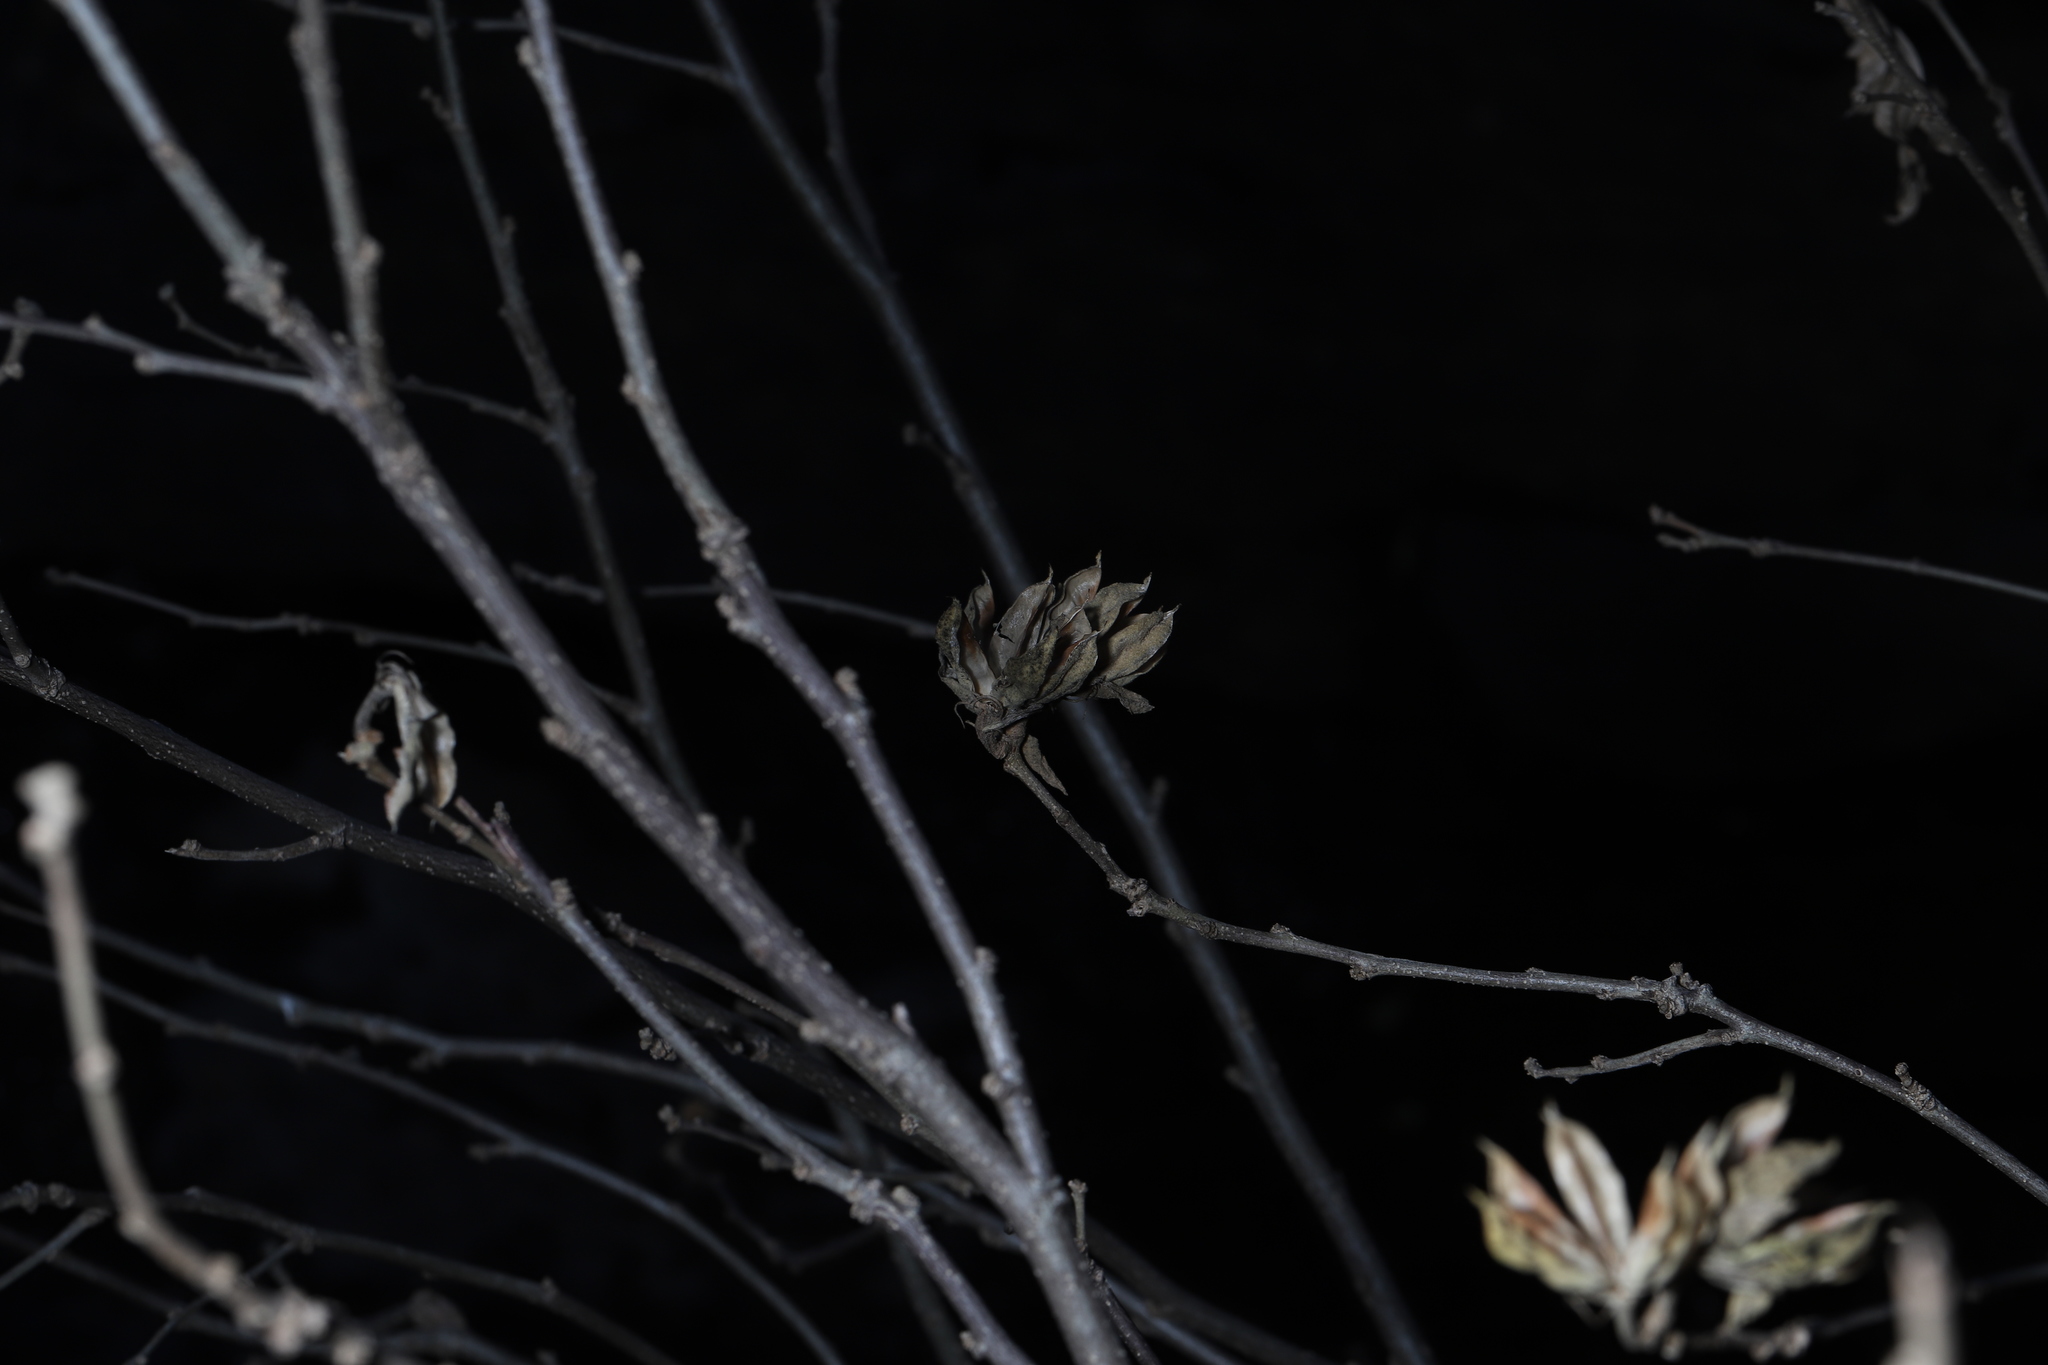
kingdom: Plantae
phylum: Tracheophyta
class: Magnoliopsida
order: Malvales
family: Malvaceae
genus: Hibiscus
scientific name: Hibiscus syriacus
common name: Syrian ketmia
